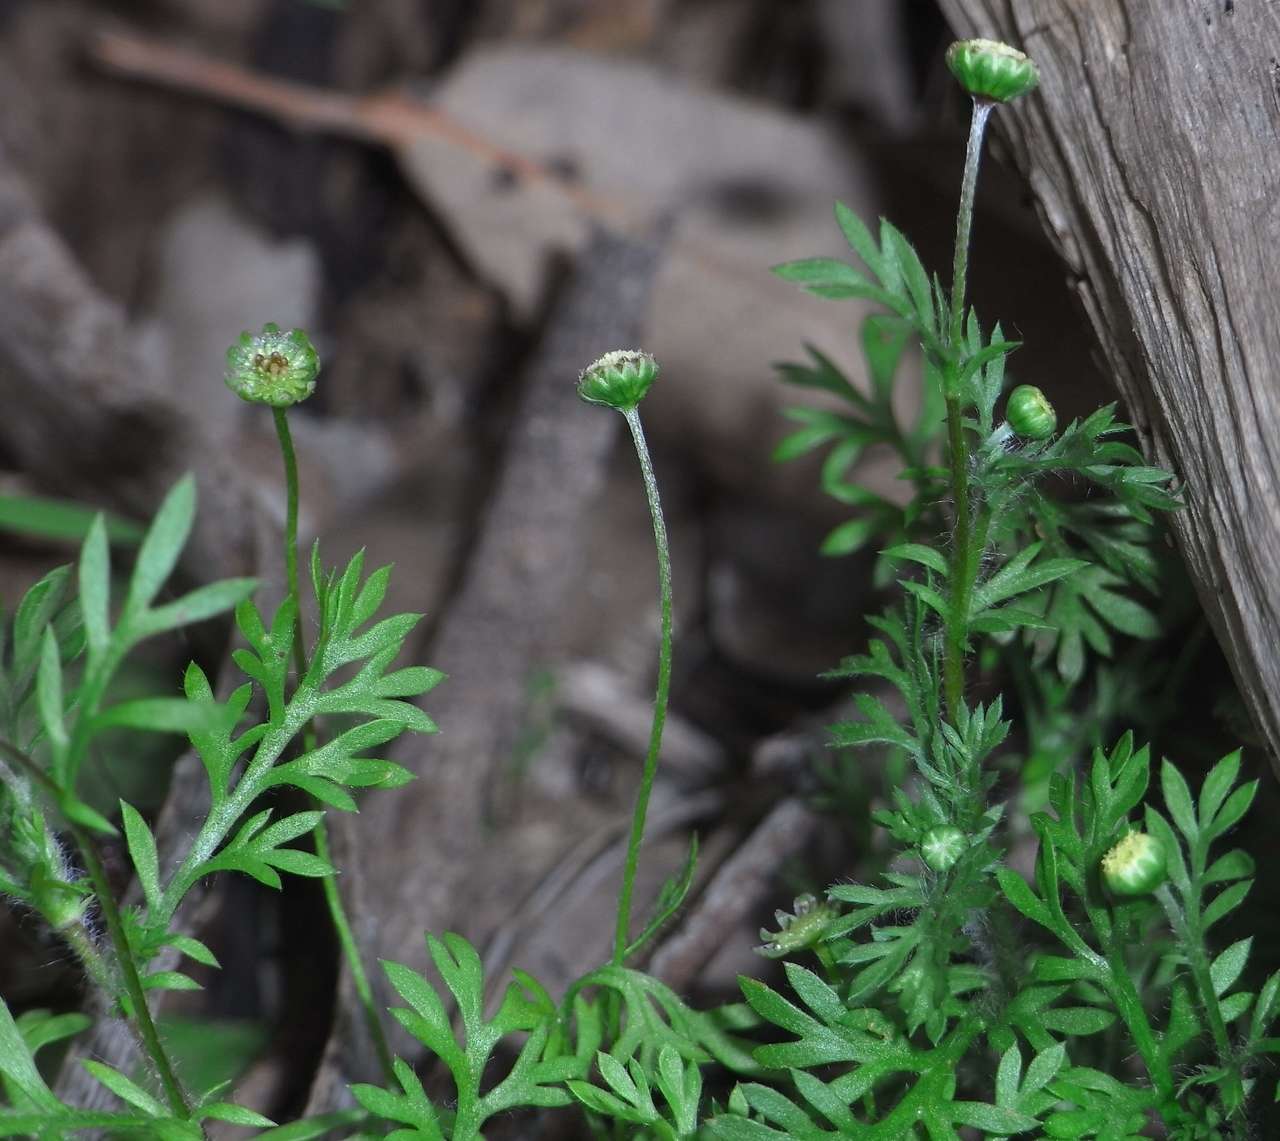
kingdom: Plantae
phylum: Tracheophyta
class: Magnoliopsida
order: Asterales
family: Asteraceae
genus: Cotula
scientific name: Cotula australis
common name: Australian waterbuttons
